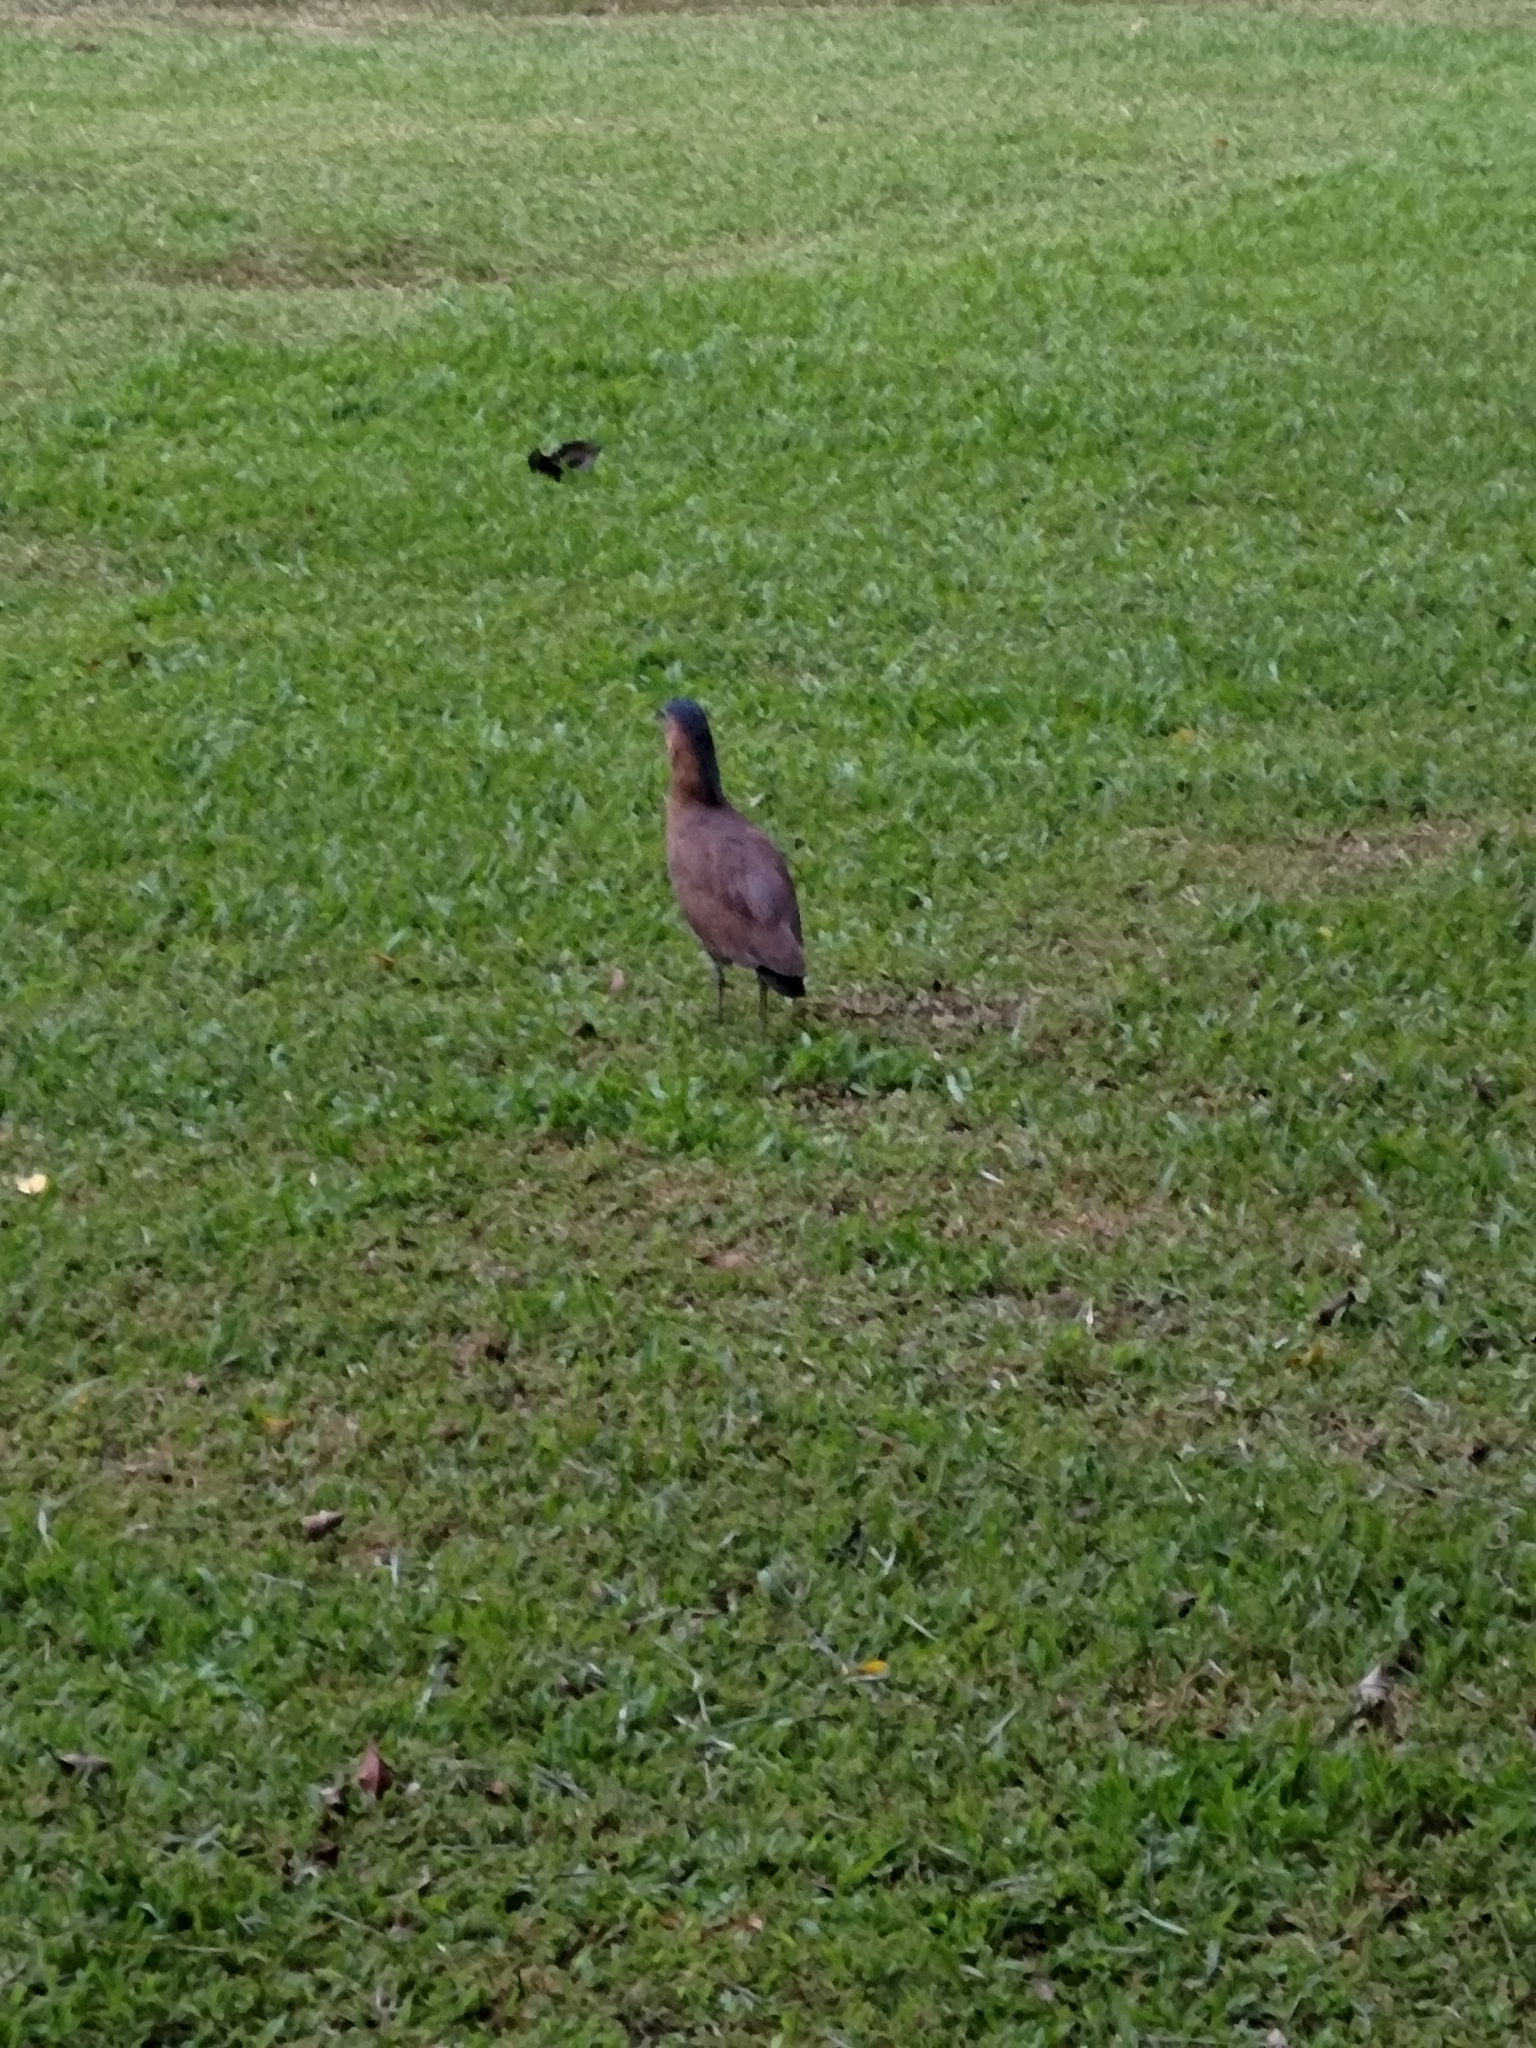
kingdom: Animalia
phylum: Chordata
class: Aves
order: Pelecaniformes
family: Ardeidae
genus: Gorsachius
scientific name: Gorsachius melanolophus
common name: Malayan night heron
